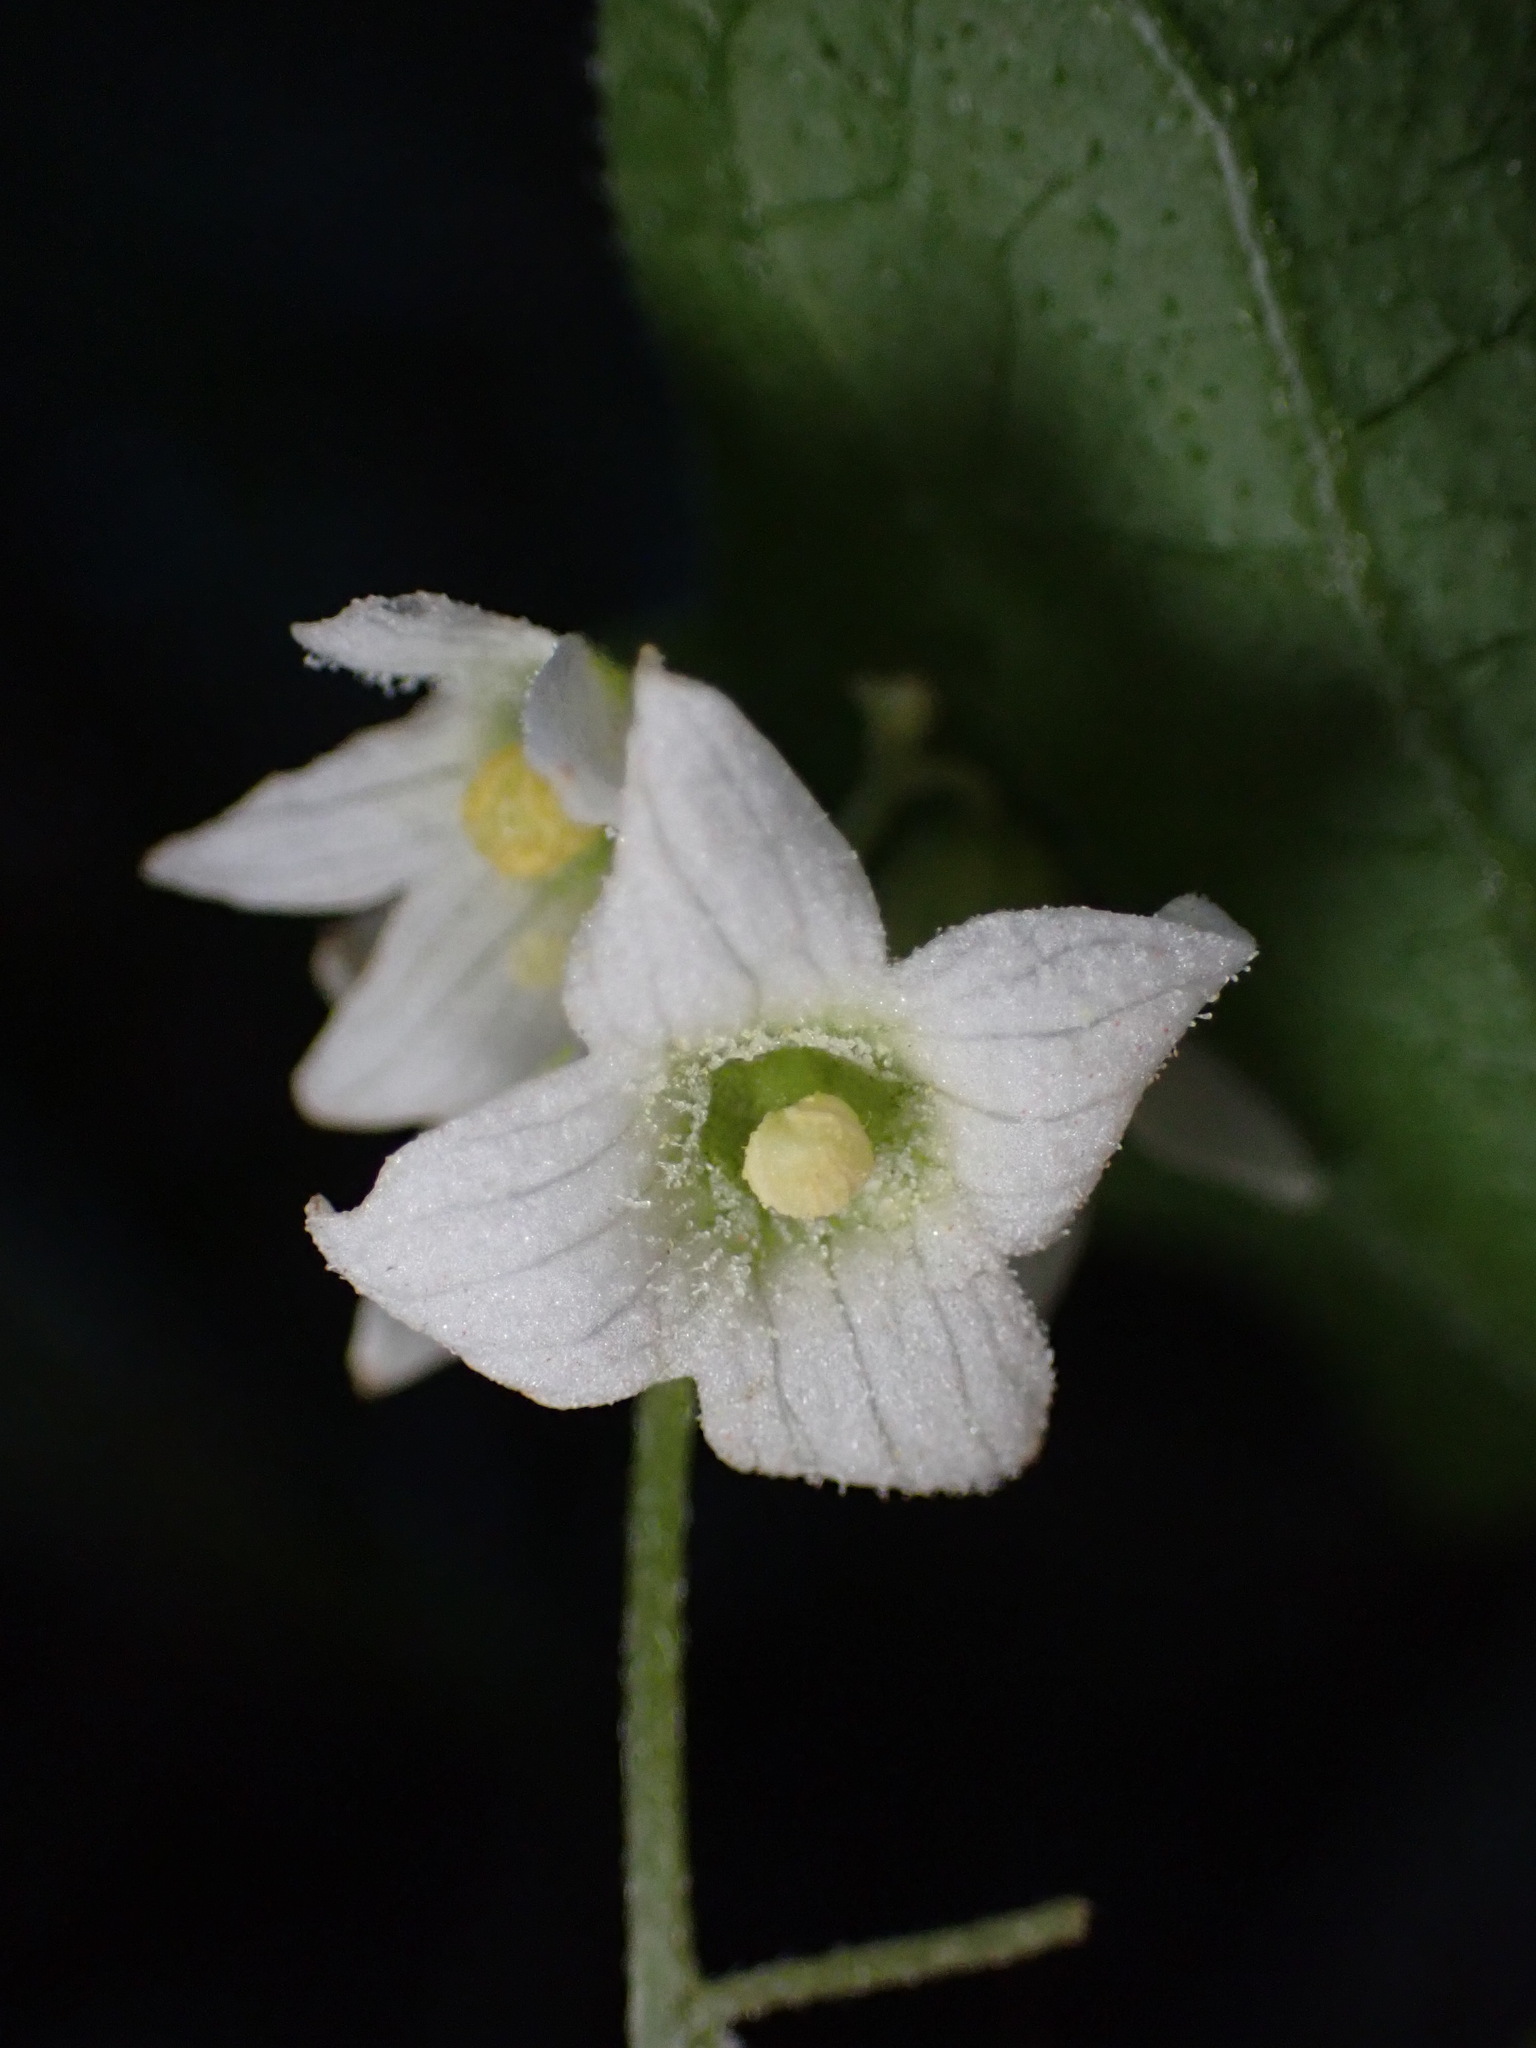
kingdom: Plantae
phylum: Tracheophyta
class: Magnoliopsida
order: Cucurbitales
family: Cucurbitaceae
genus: Marah
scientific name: Marah macrocarpa
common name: Cucamonga manroot
